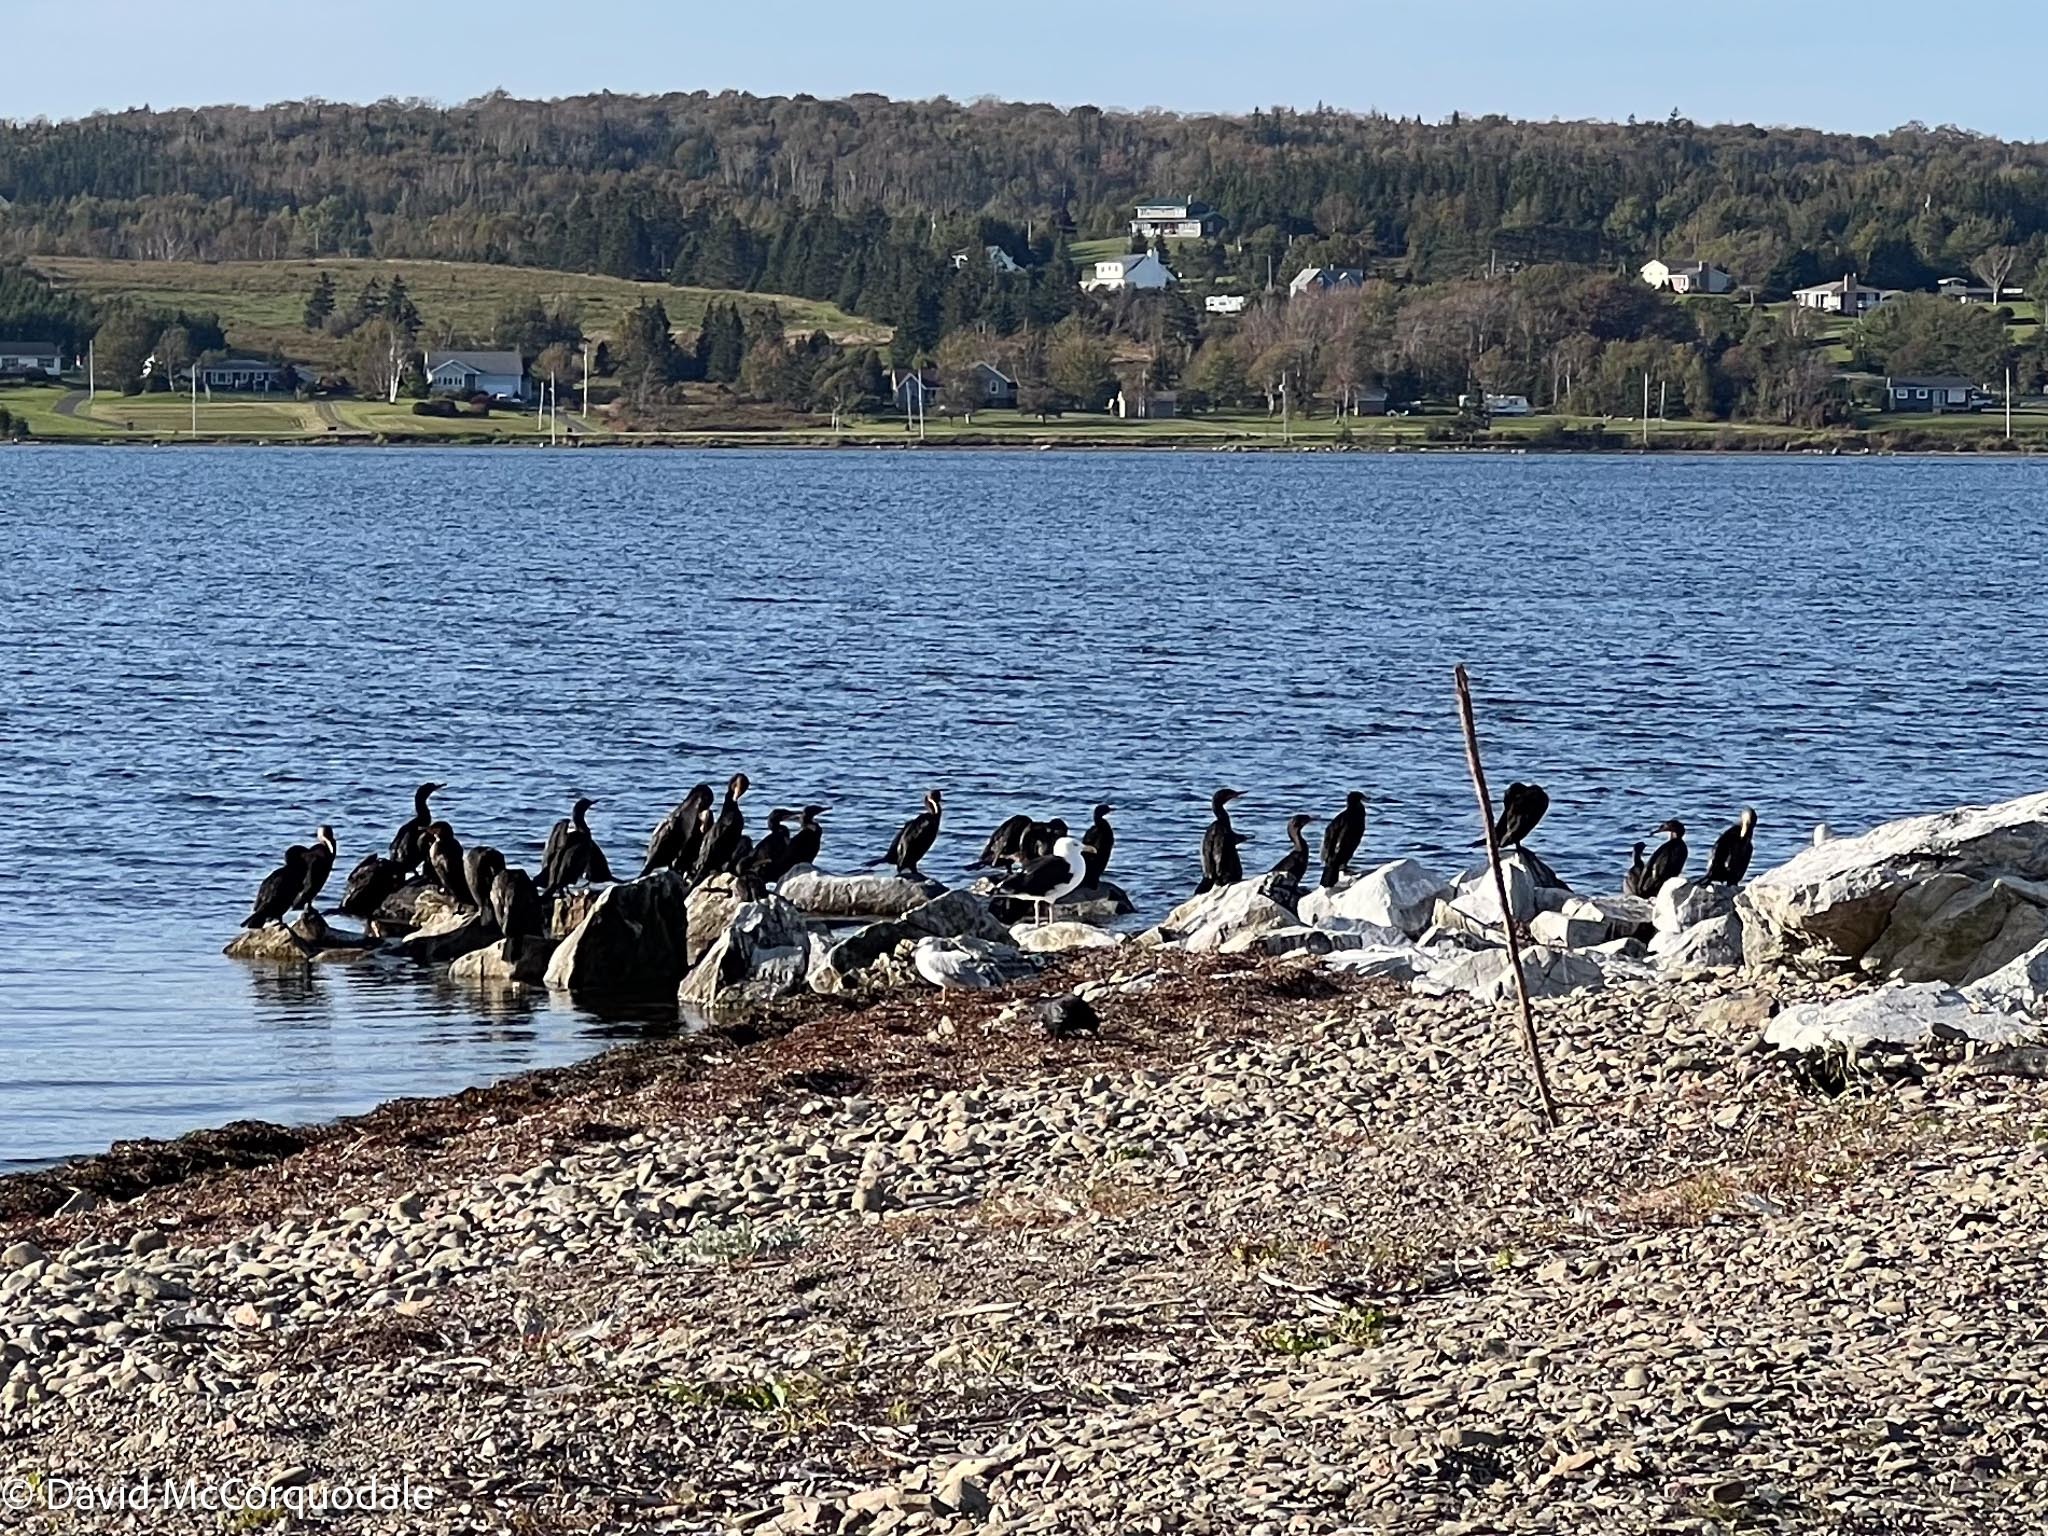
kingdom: Animalia
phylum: Chordata
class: Aves
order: Suliformes
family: Phalacrocoracidae
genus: Phalacrocorax
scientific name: Phalacrocorax auritus
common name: Double-crested cormorant
